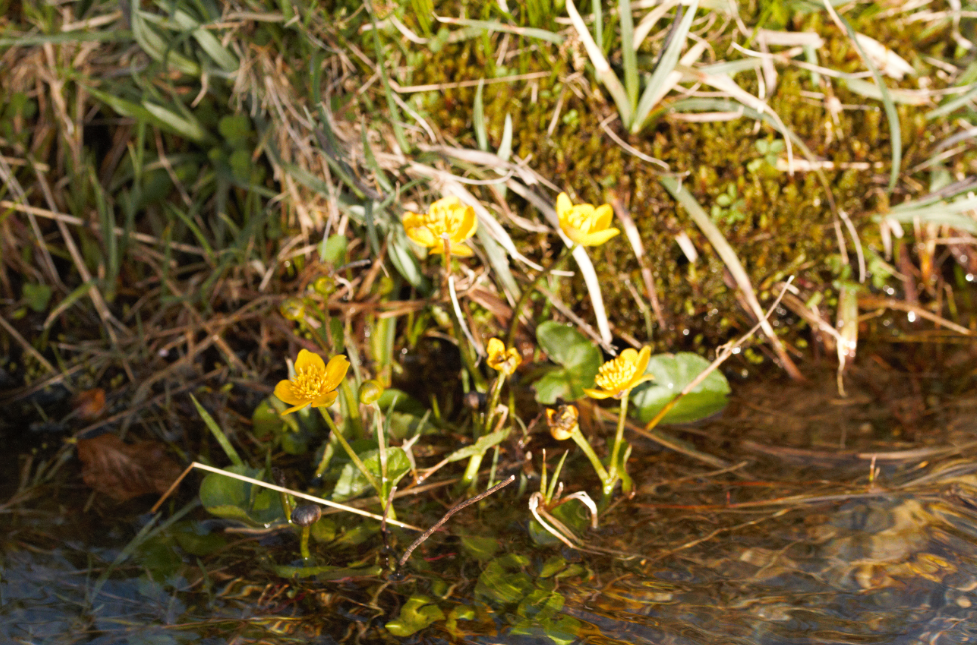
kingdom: Plantae
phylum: Tracheophyta
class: Magnoliopsida
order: Ranunculales
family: Ranunculaceae
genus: Caltha
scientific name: Caltha palustris
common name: Marsh marigold
